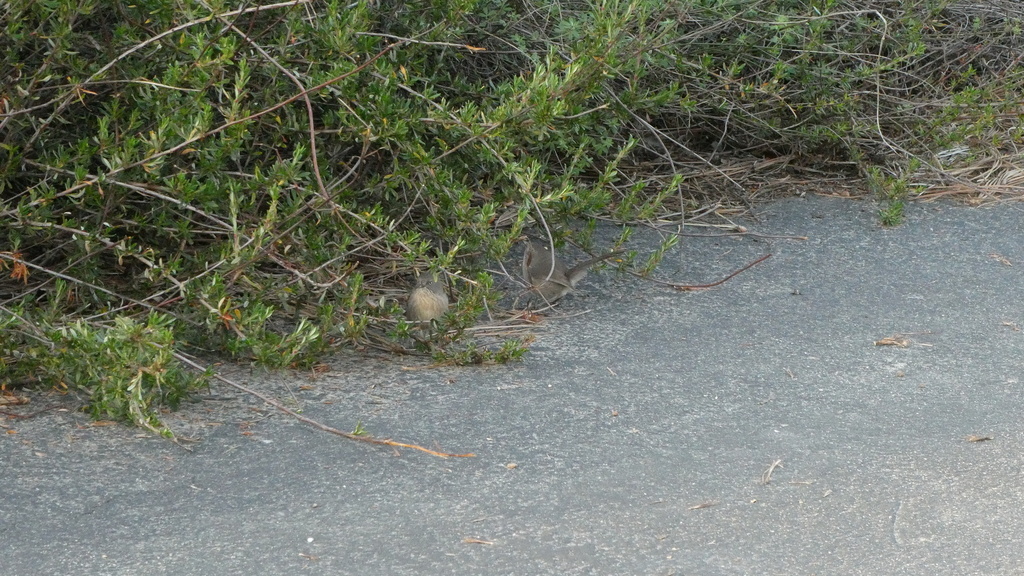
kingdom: Animalia
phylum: Chordata
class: Aves
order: Passeriformes
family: Sylviidae
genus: Chamaea
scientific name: Chamaea fasciata
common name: Wrentit
